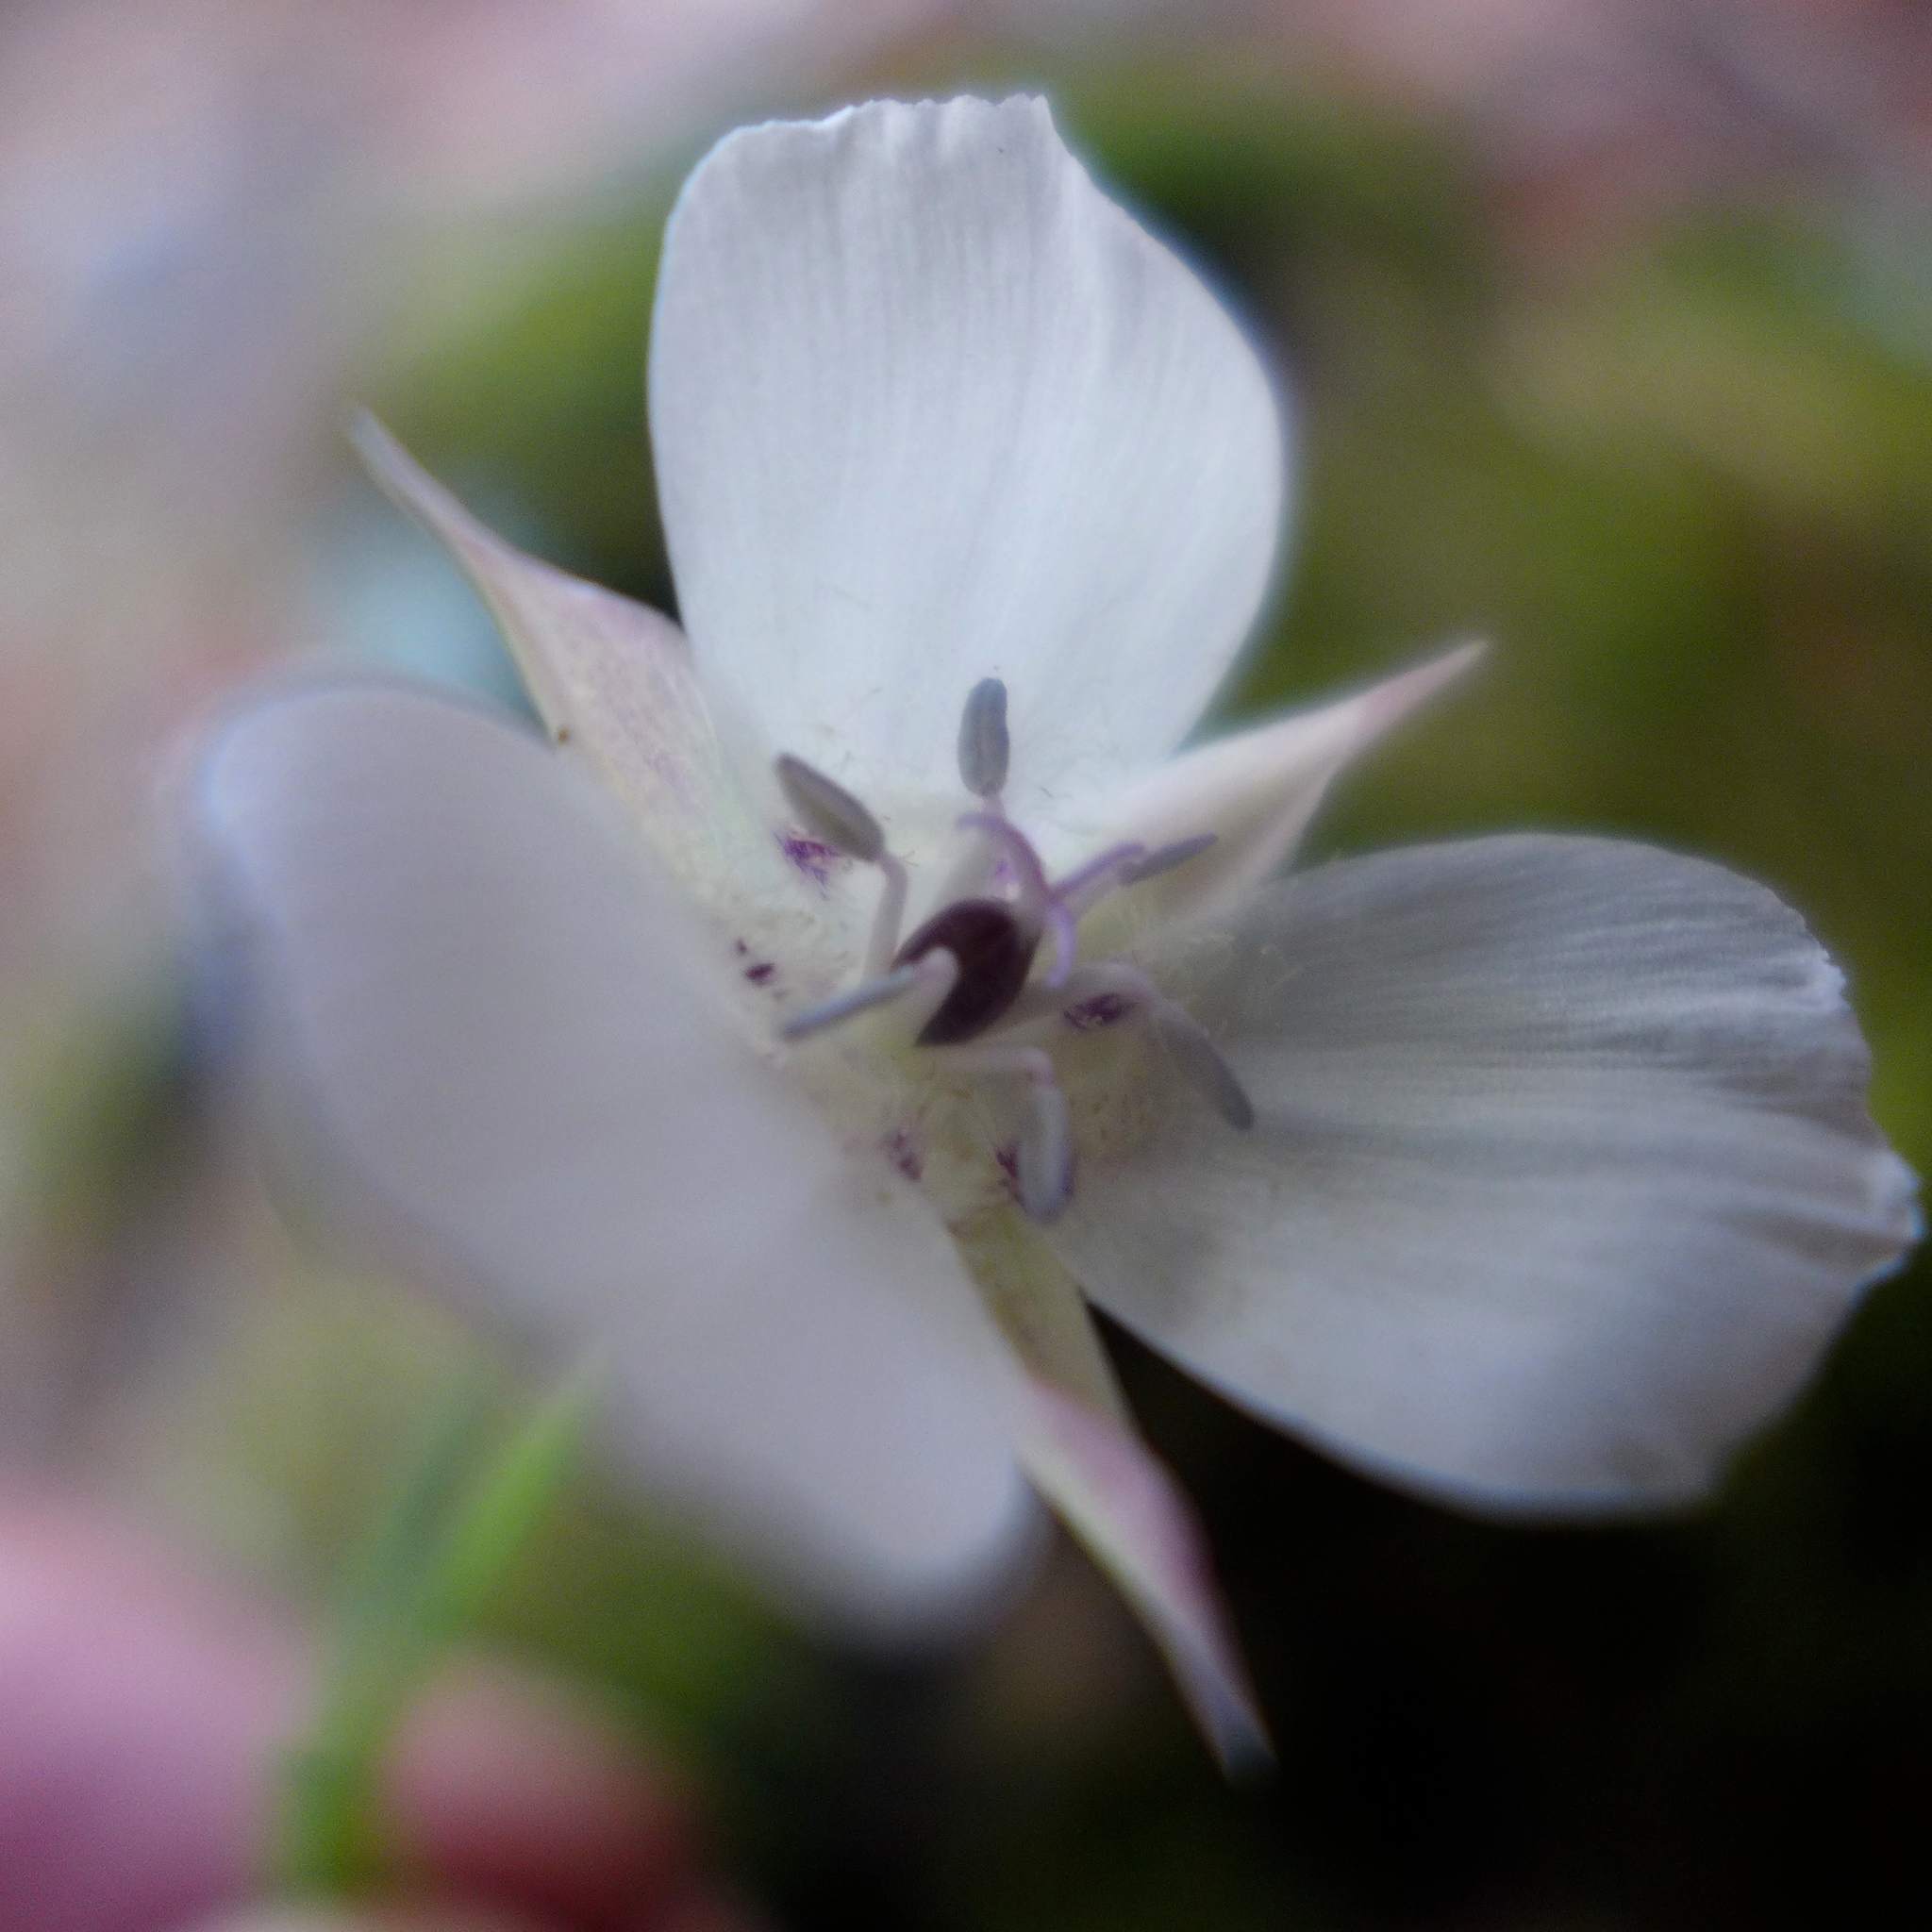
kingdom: Plantae
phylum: Tracheophyta
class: Liliopsida
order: Liliales
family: Liliaceae
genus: Calochortus
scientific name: Calochortus umbellatus
